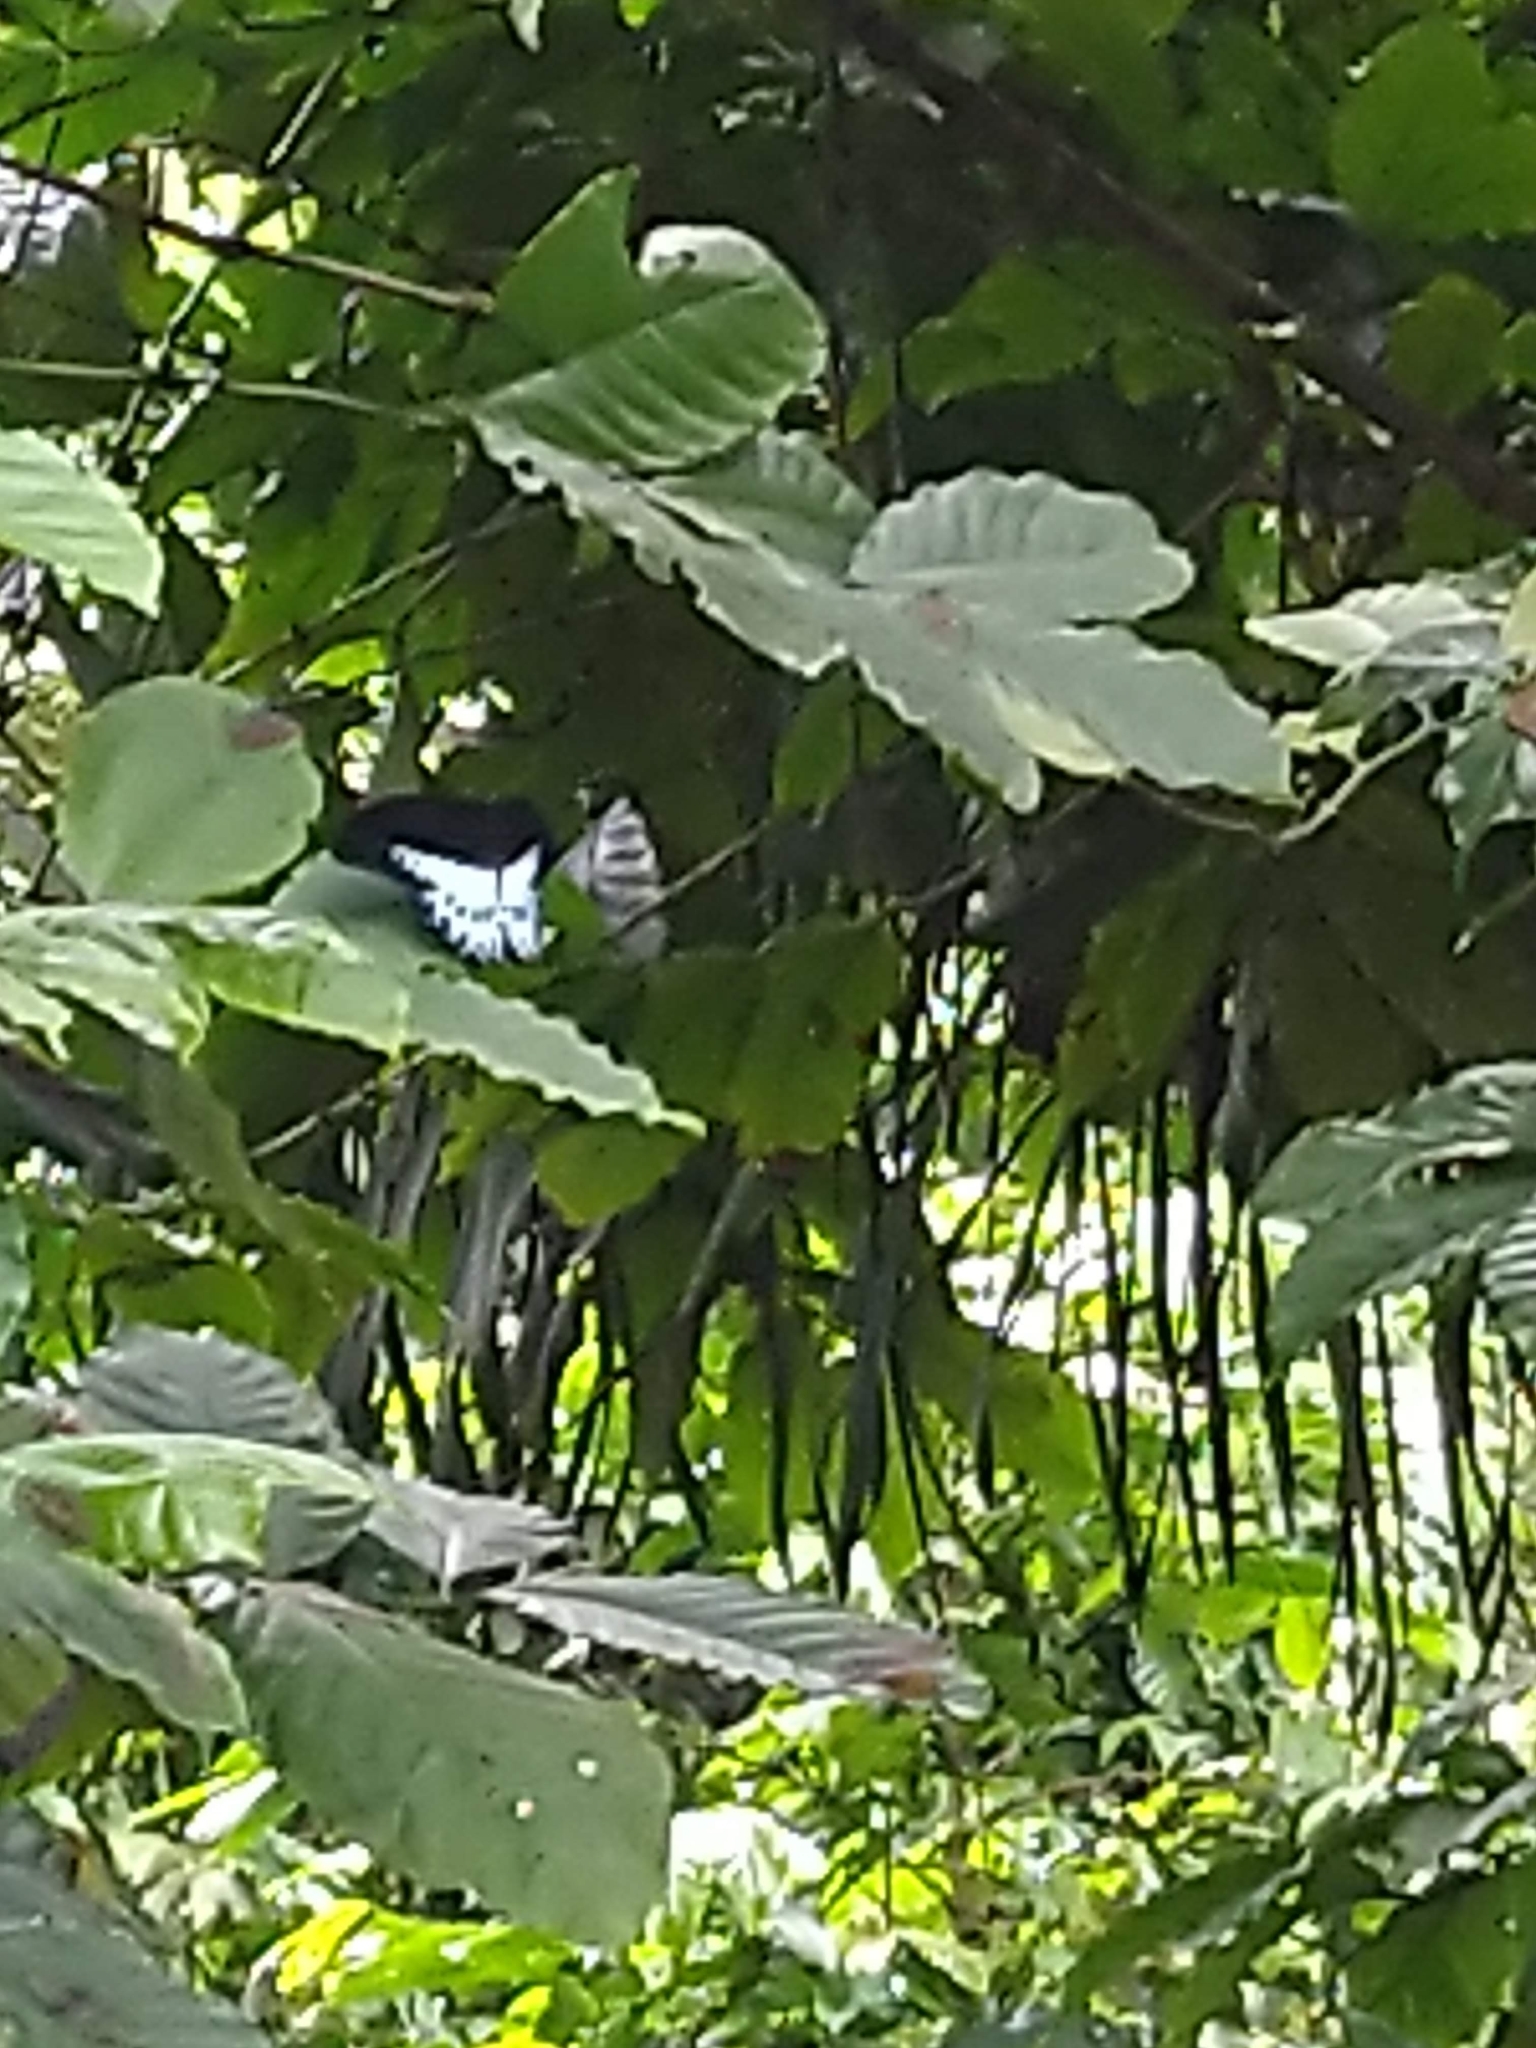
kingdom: Animalia
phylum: Arthropoda
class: Insecta
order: Lepidoptera
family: Papilionidae
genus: Papilio
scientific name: Papilio memnon
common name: Great mormon
